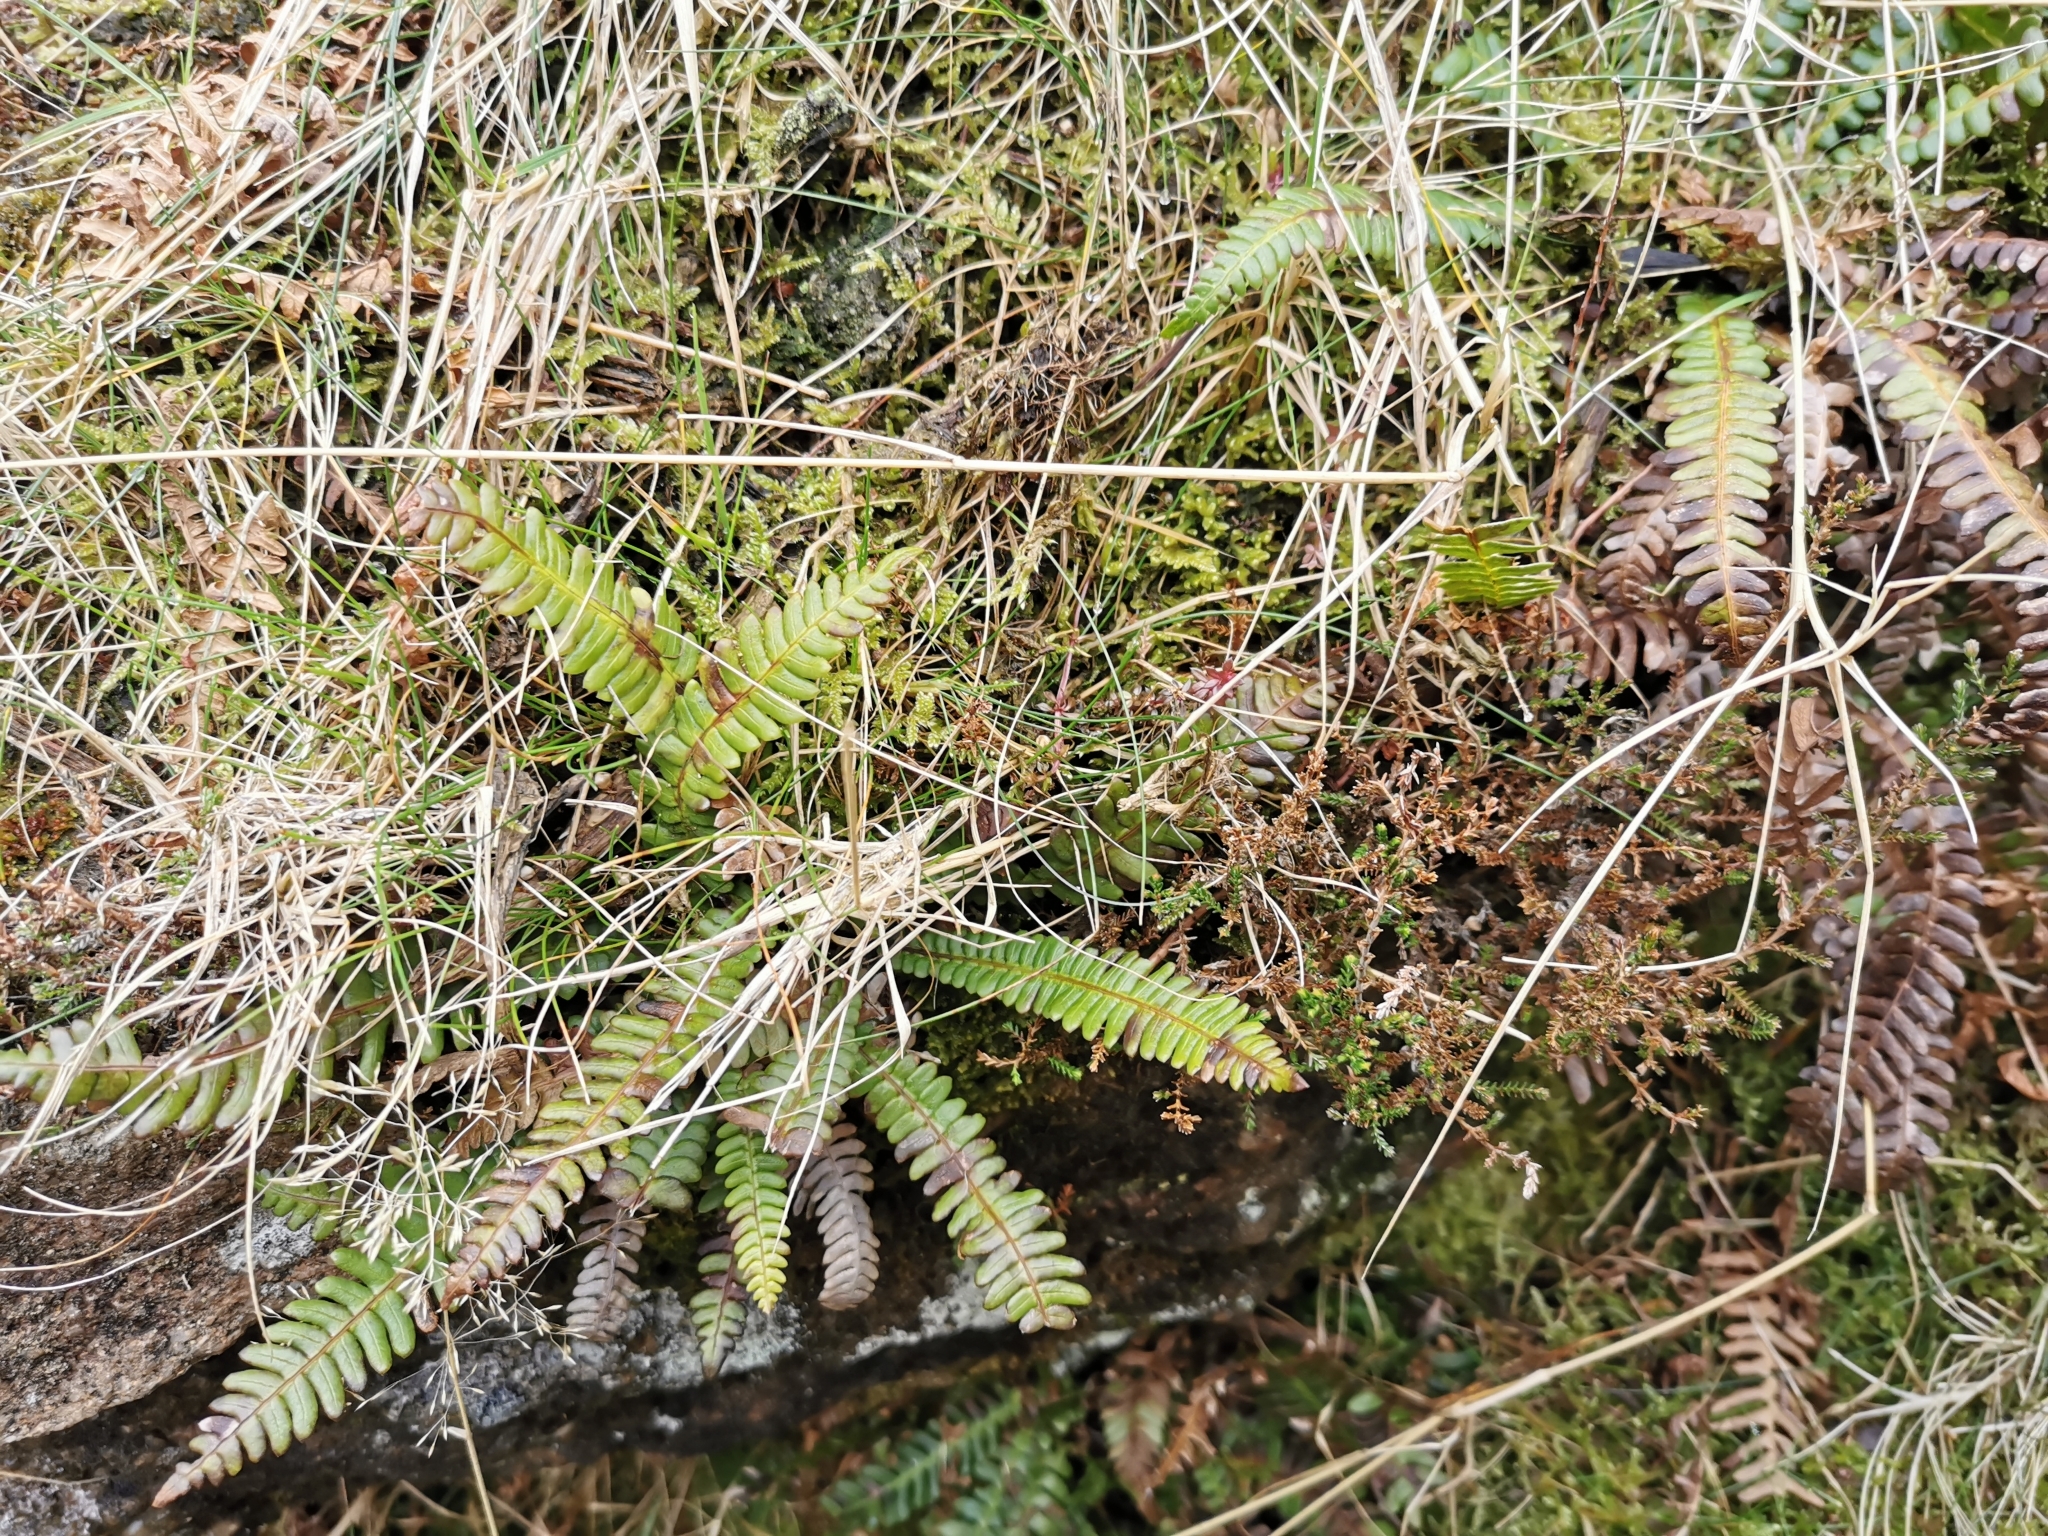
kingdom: Plantae
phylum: Tracheophyta
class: Polypodiopsida
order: Polypodiales
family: Blechnaceae
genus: Struthiopteris
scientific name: Struthiopteris spicant
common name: Deer fern
